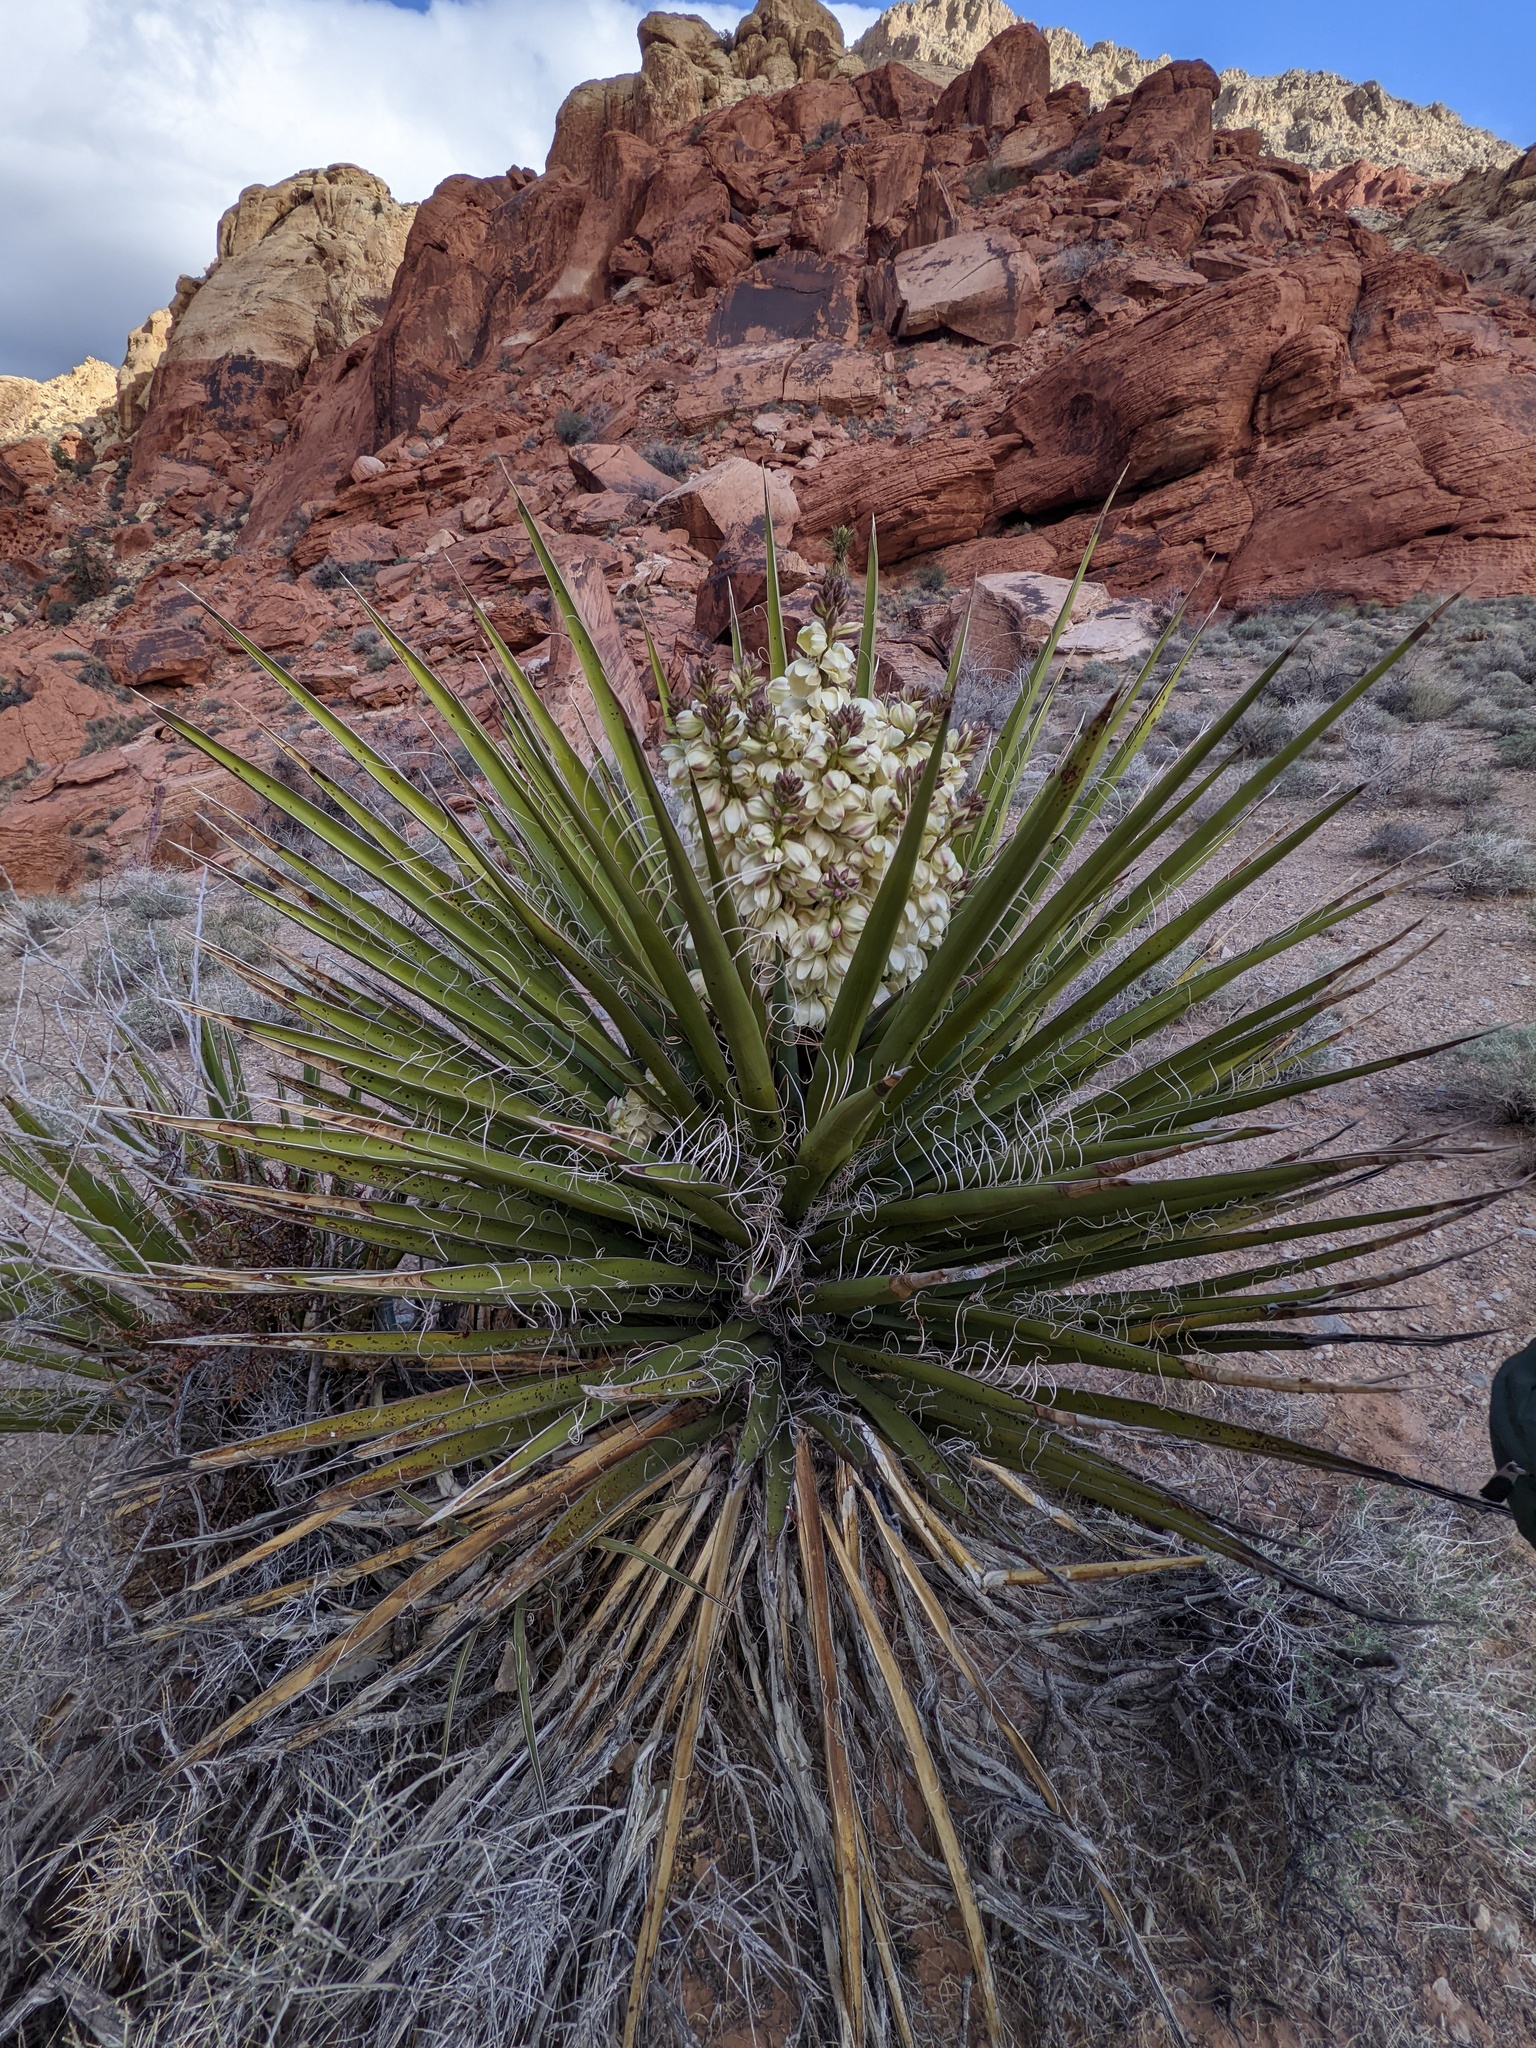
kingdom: Plantae
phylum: Tracheophyta
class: Liliopsida
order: Asparagales
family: Asparagaceae
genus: Yucca
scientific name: Yucca schidigera
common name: Mojave yucca
